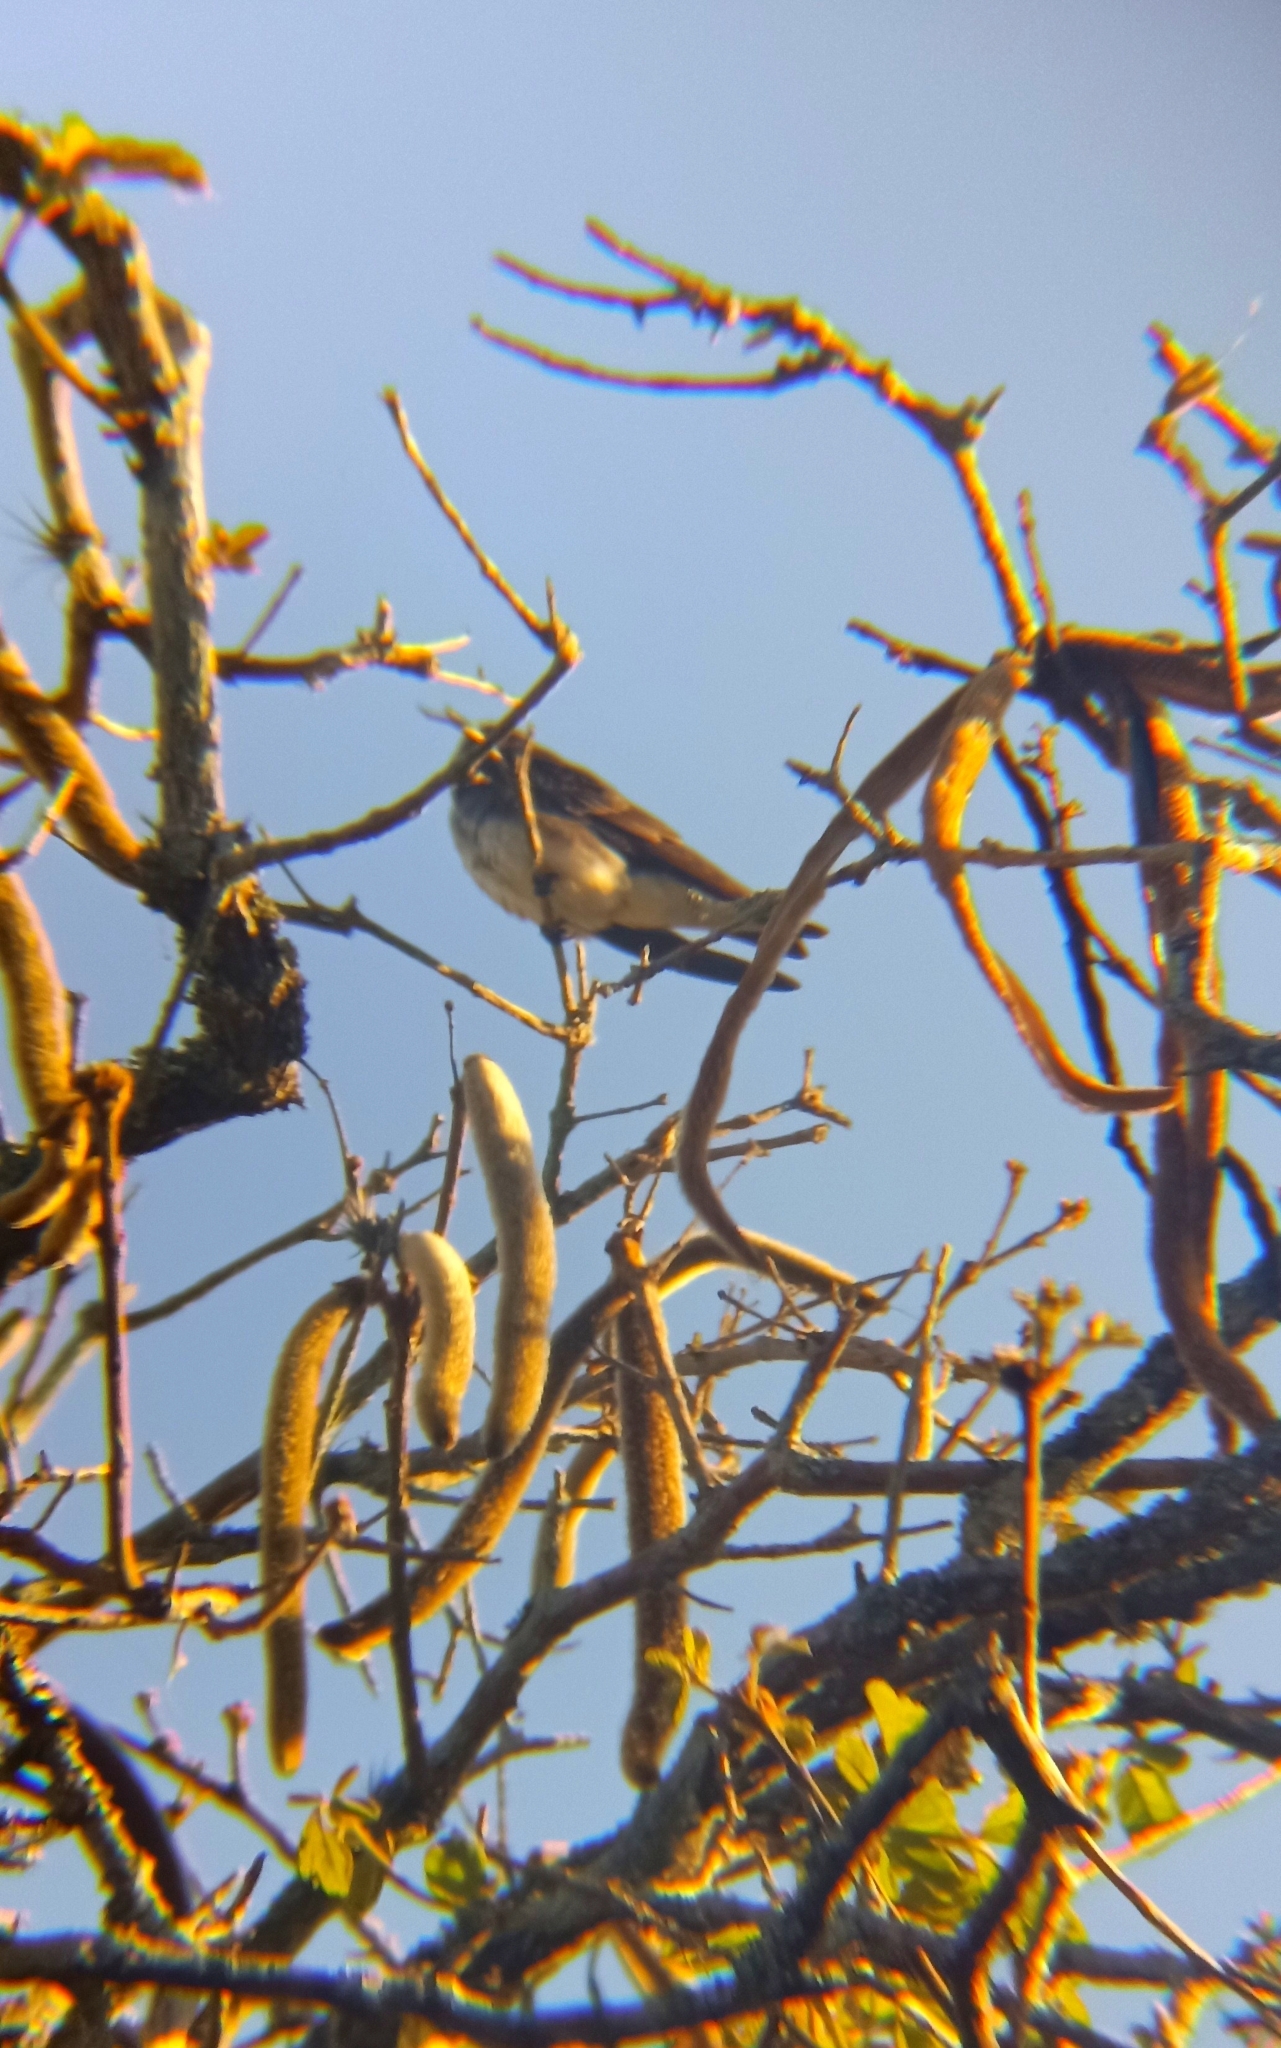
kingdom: Animalia
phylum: Chordata
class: Aves
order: Passeriformes
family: Hirundinidae
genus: Progne
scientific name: Progne tapera
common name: Brown-chested martin
